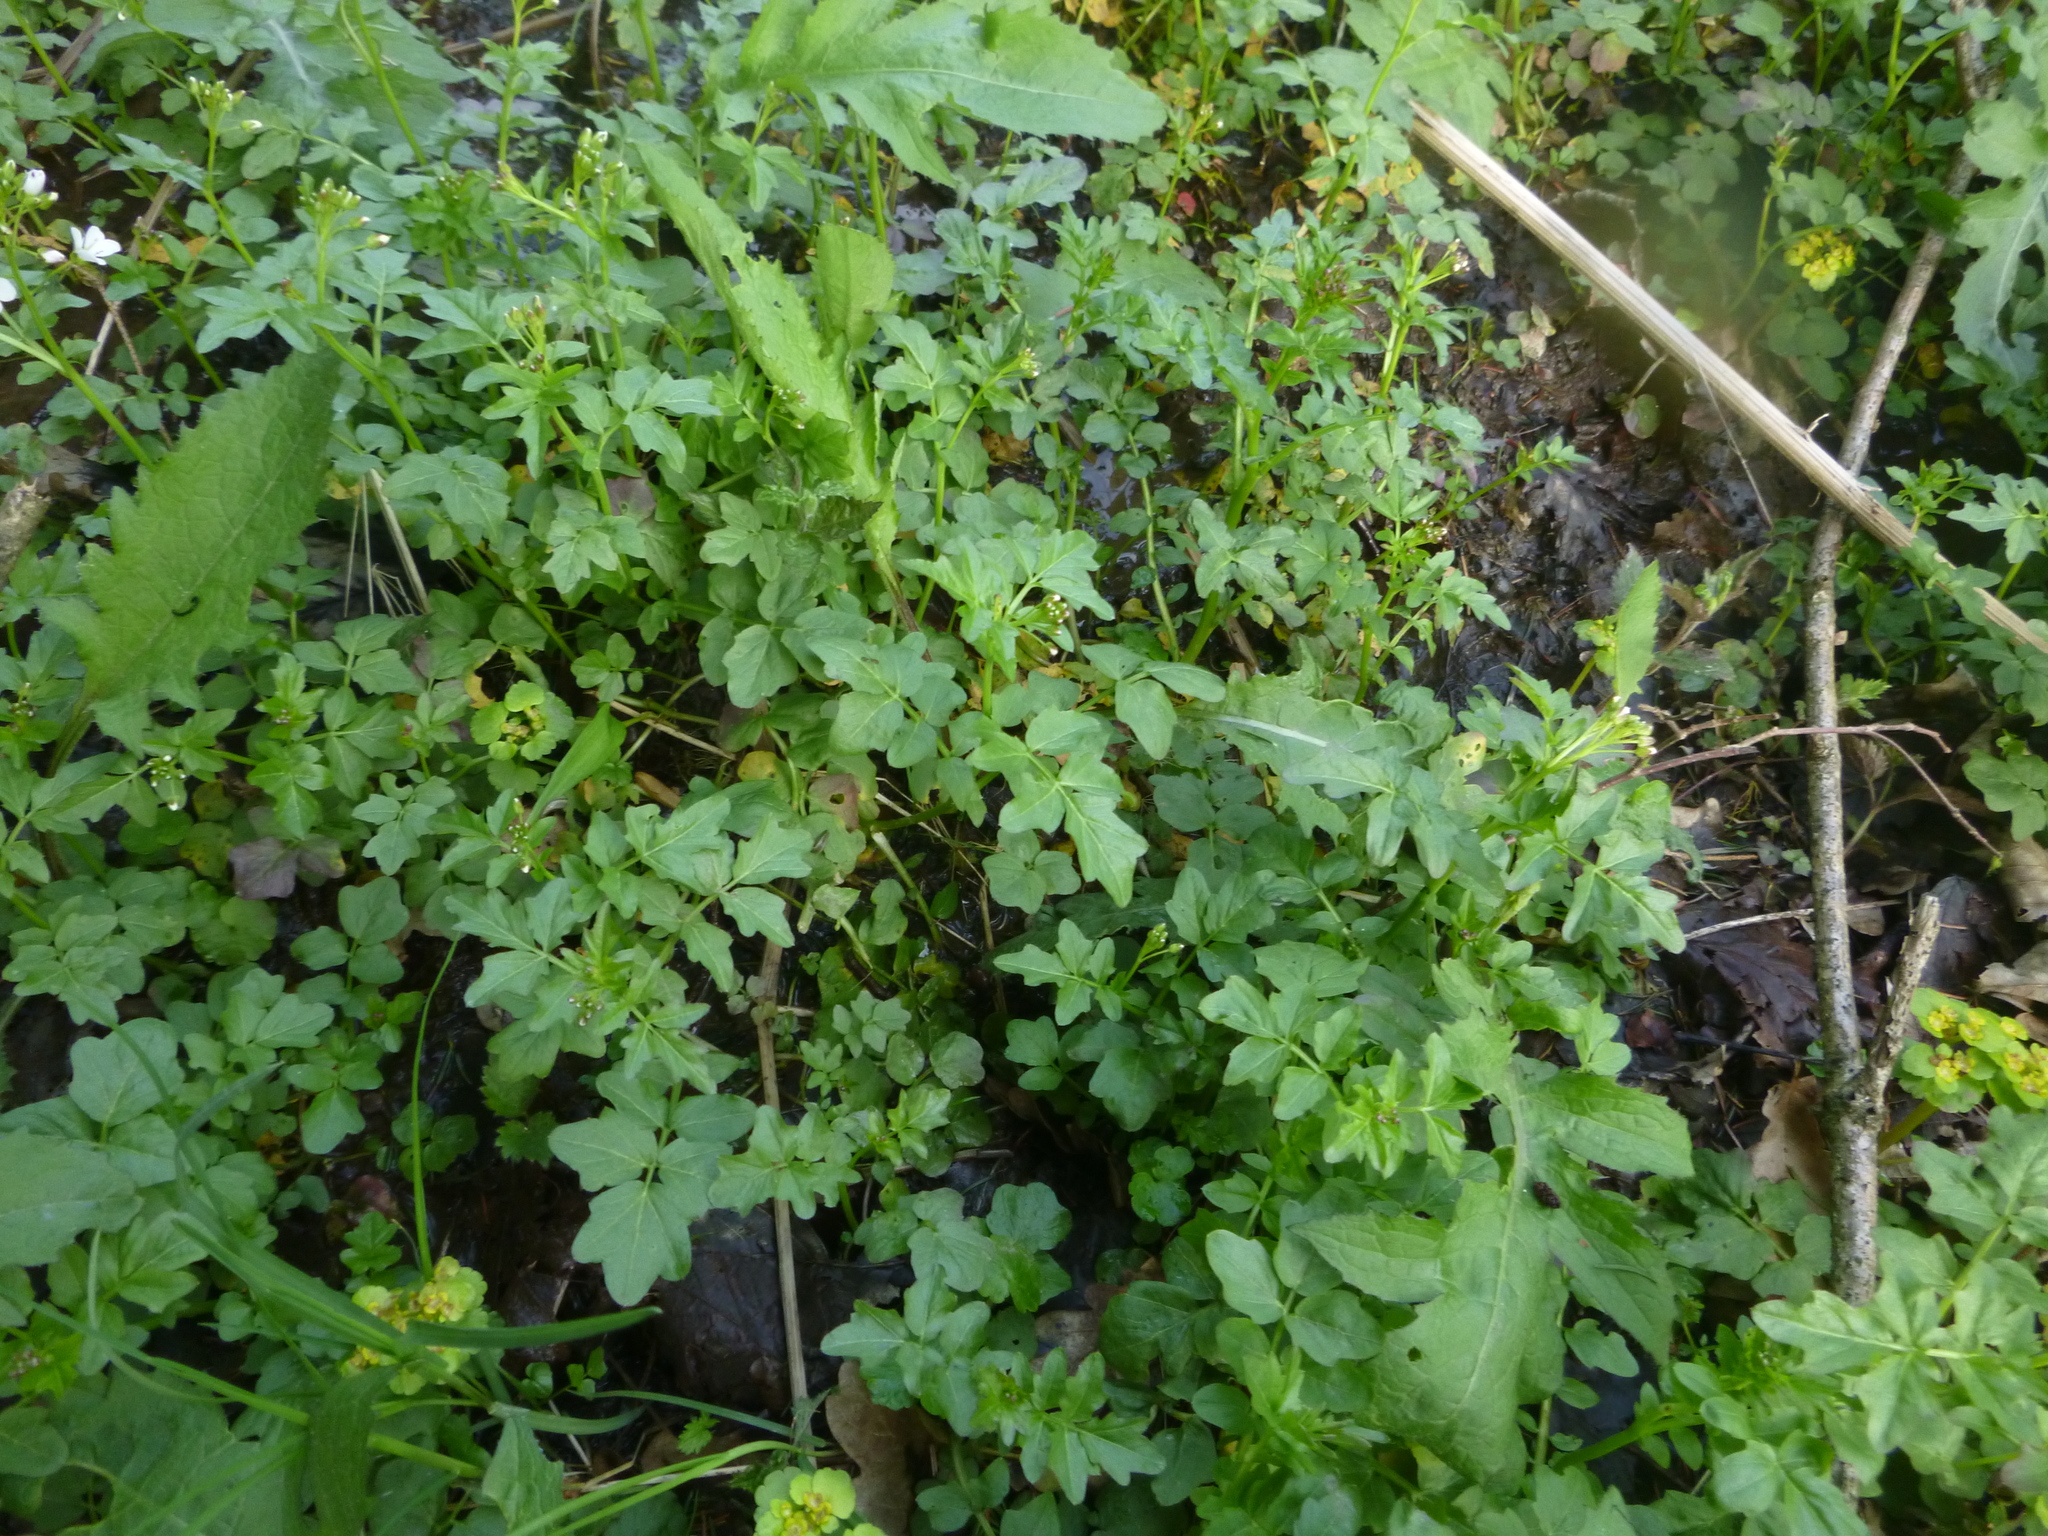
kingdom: Plantae
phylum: Tracheophyta
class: Magnoliopsida
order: Brassicales
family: Brassicaceae
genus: Cardamine
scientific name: Cardamine amara
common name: Large bitter-cress
